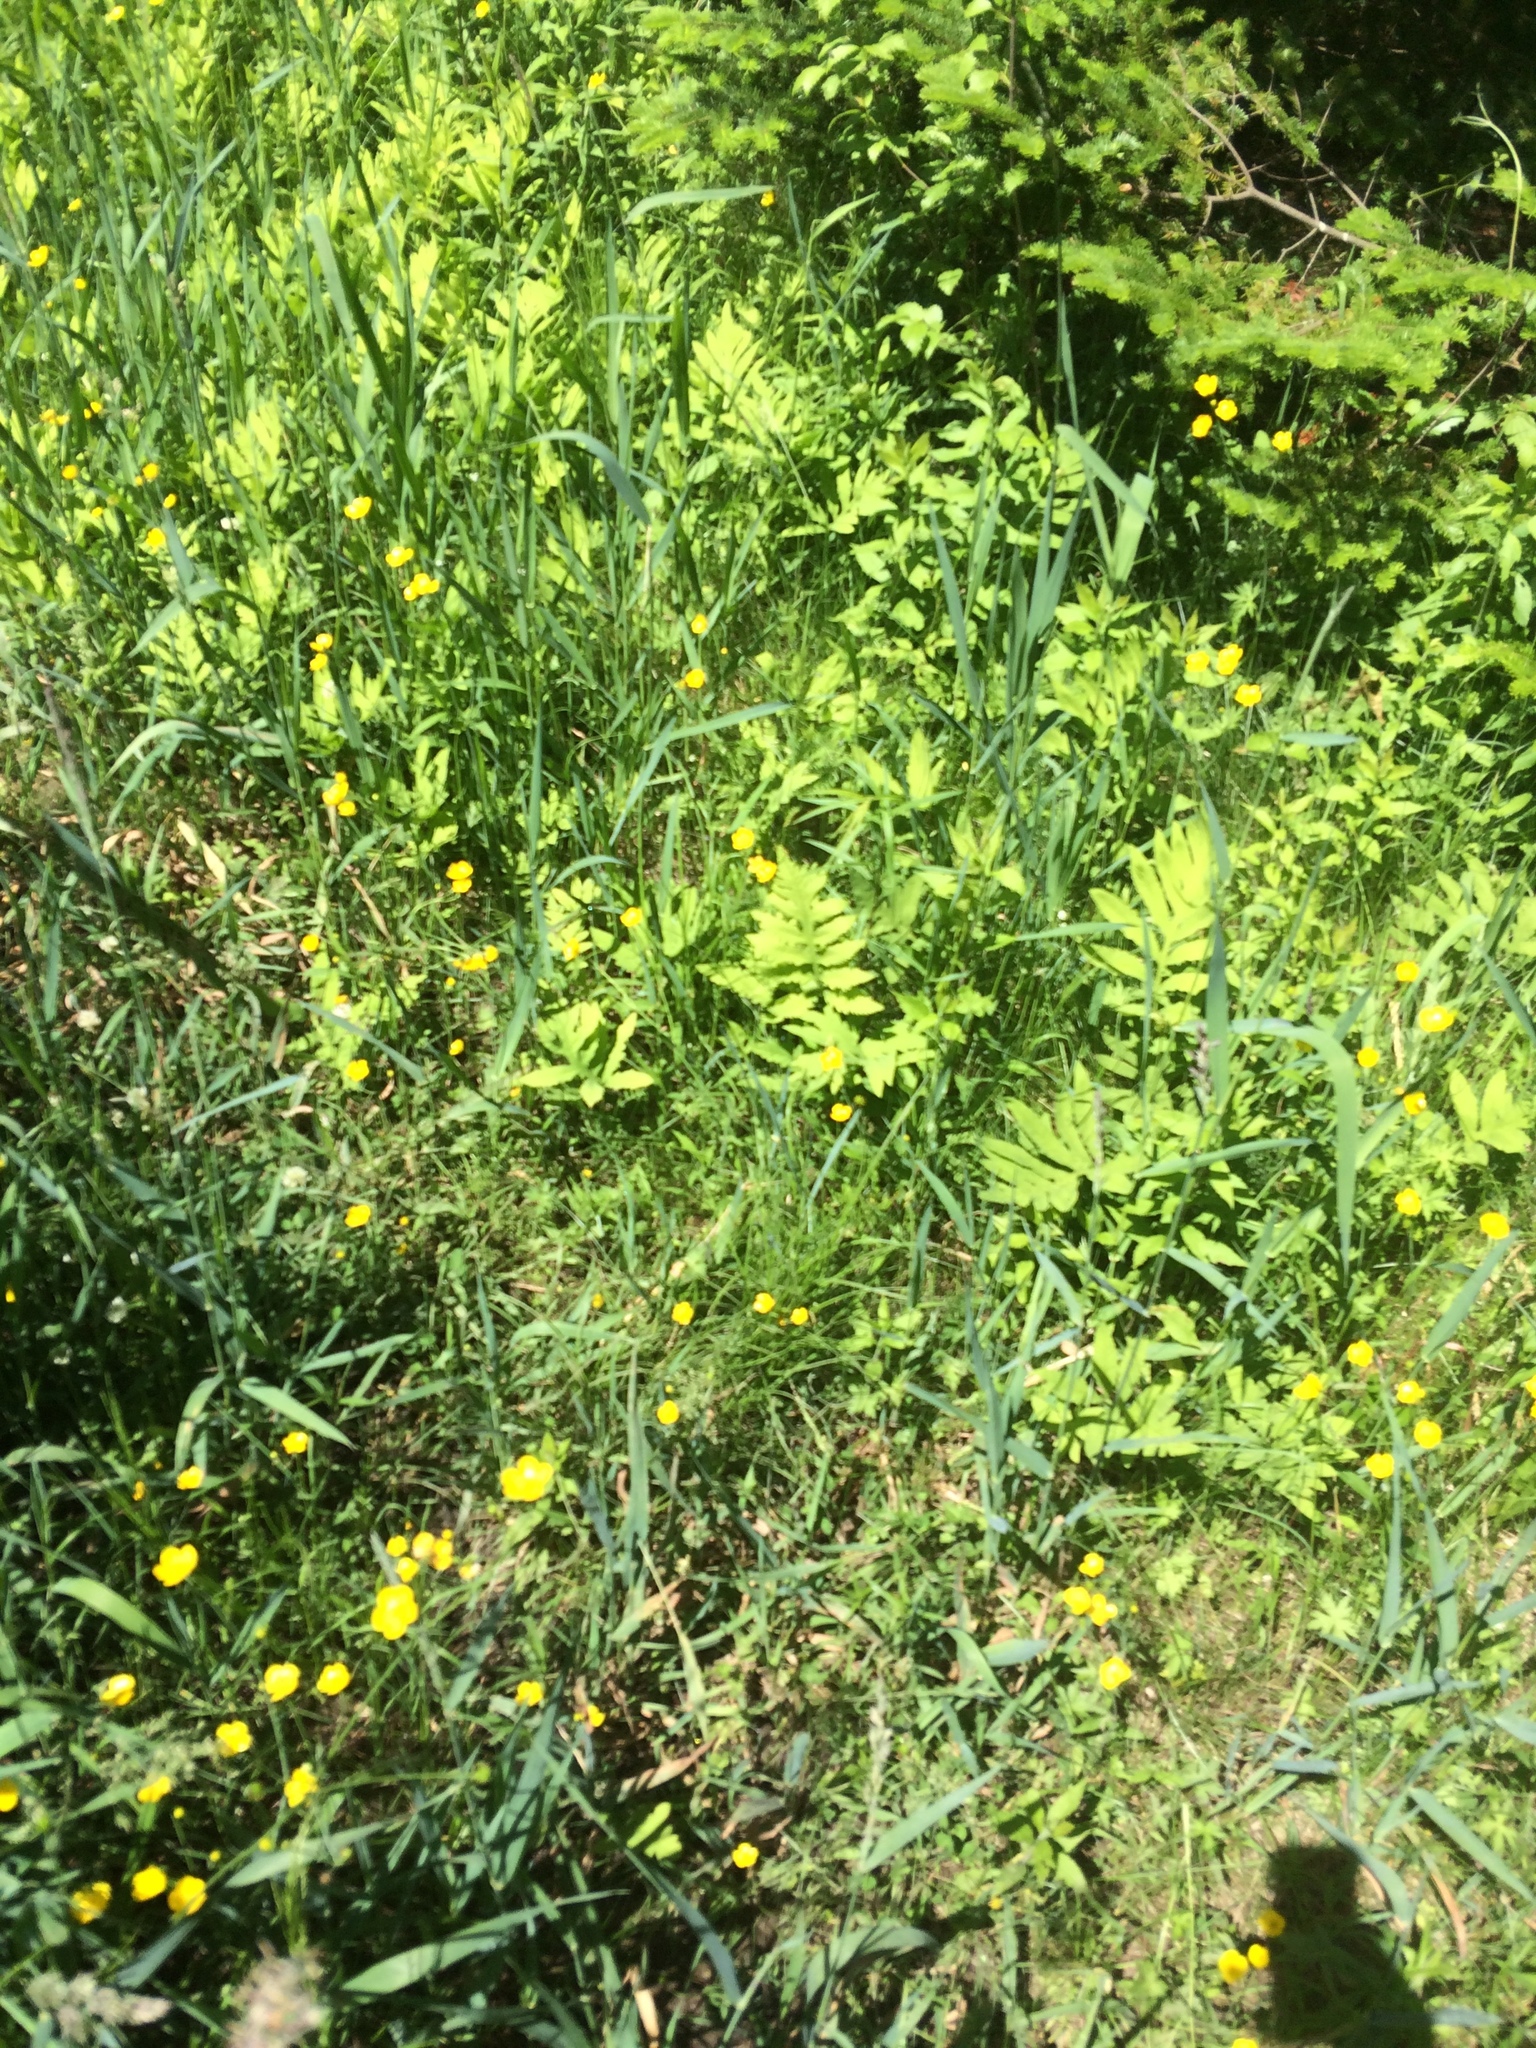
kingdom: Plantae
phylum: Tracheophyta
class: Polypodiopsida
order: Polypodiales
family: Onocleaceae
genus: Onoclea
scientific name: Onoclea sensibilis
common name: Sensitive fern
